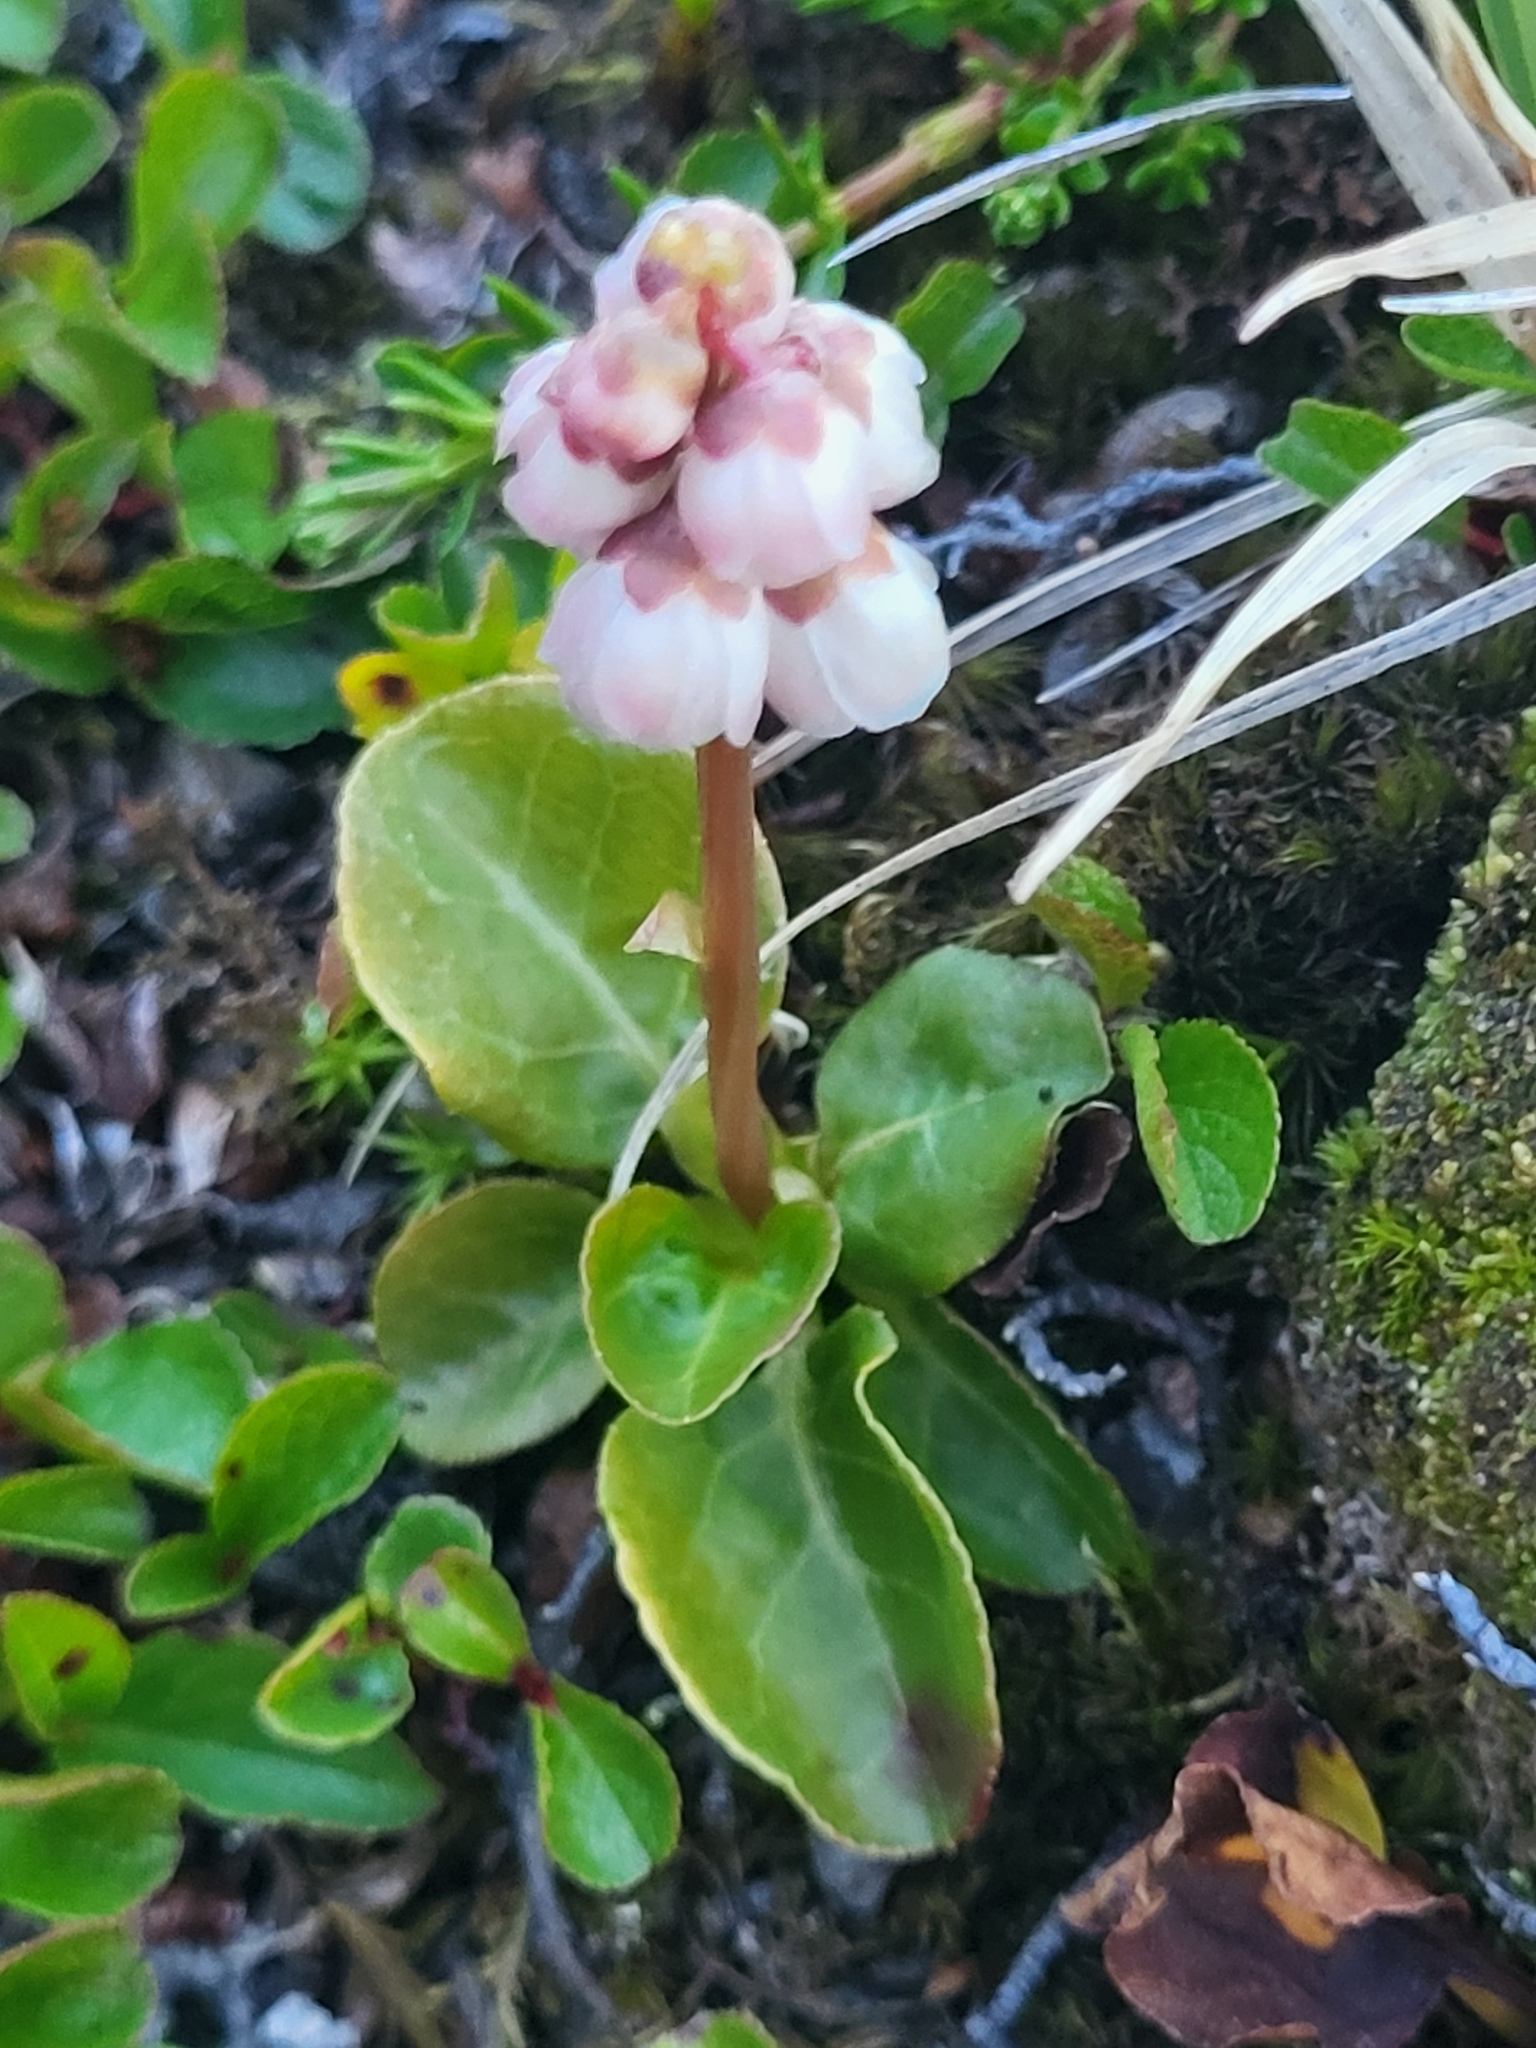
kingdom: Plantae
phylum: Tracheophyta
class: Magnoliopsida
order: Ericales
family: Ericaceae
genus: Pyrola
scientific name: Pyrola minor
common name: Common wintergreen
